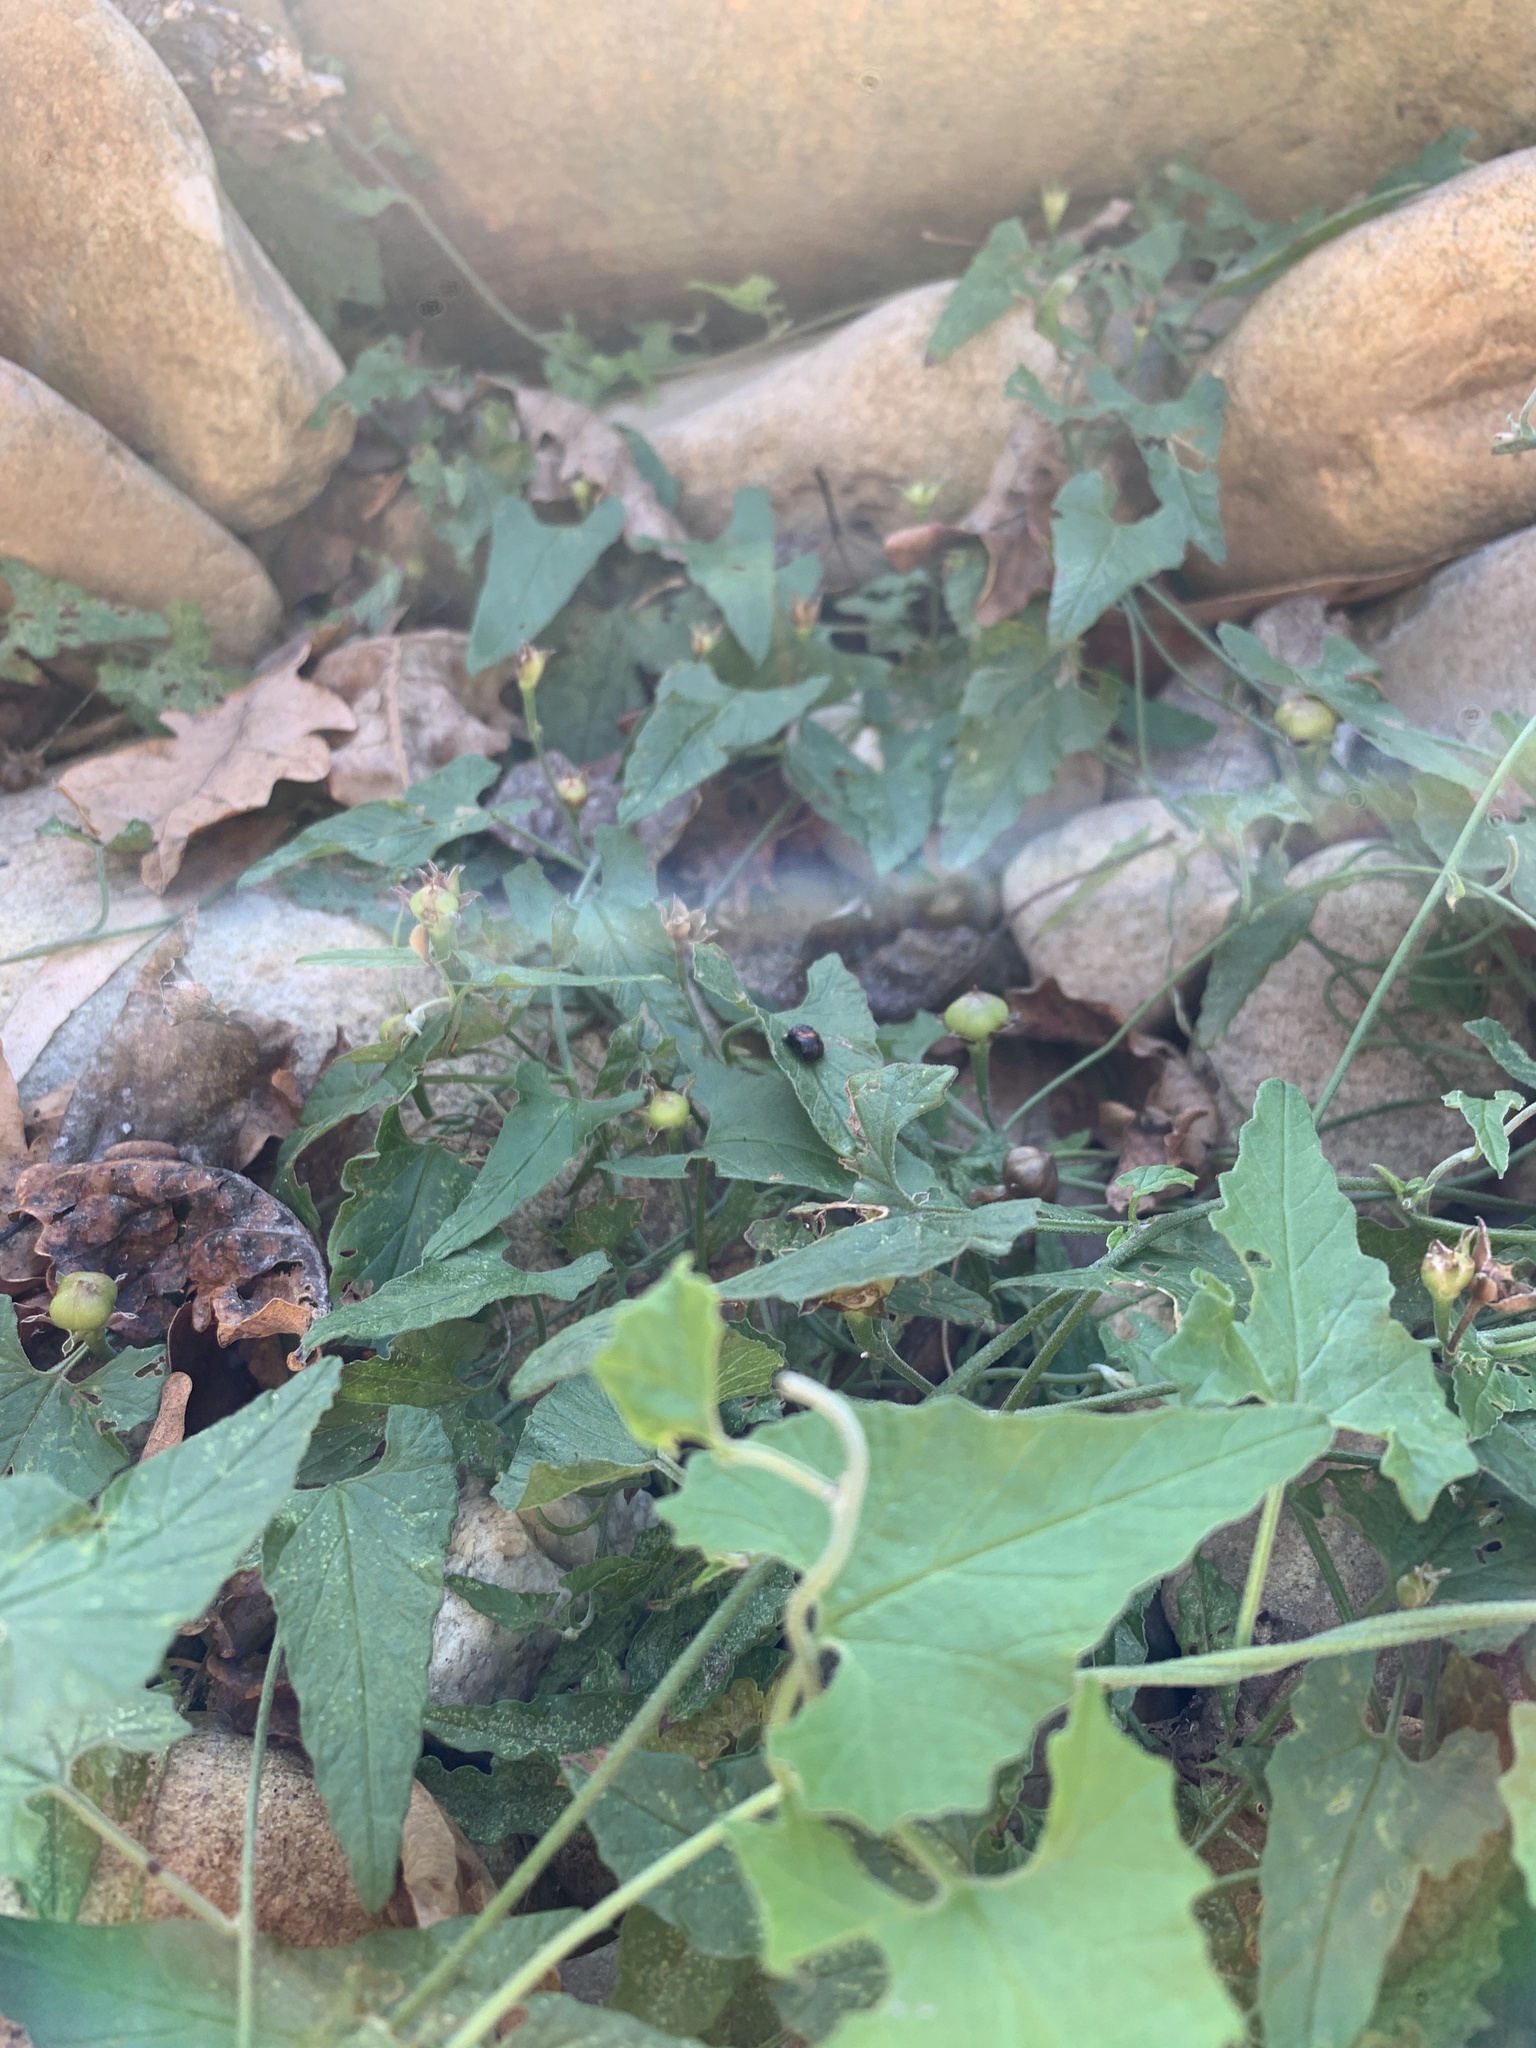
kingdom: Plantae
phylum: Tracheophyta
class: Magnoliopsida
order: Solanales
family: Convolvulaceae
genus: Convolvulus
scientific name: Convolvulus farinosus
